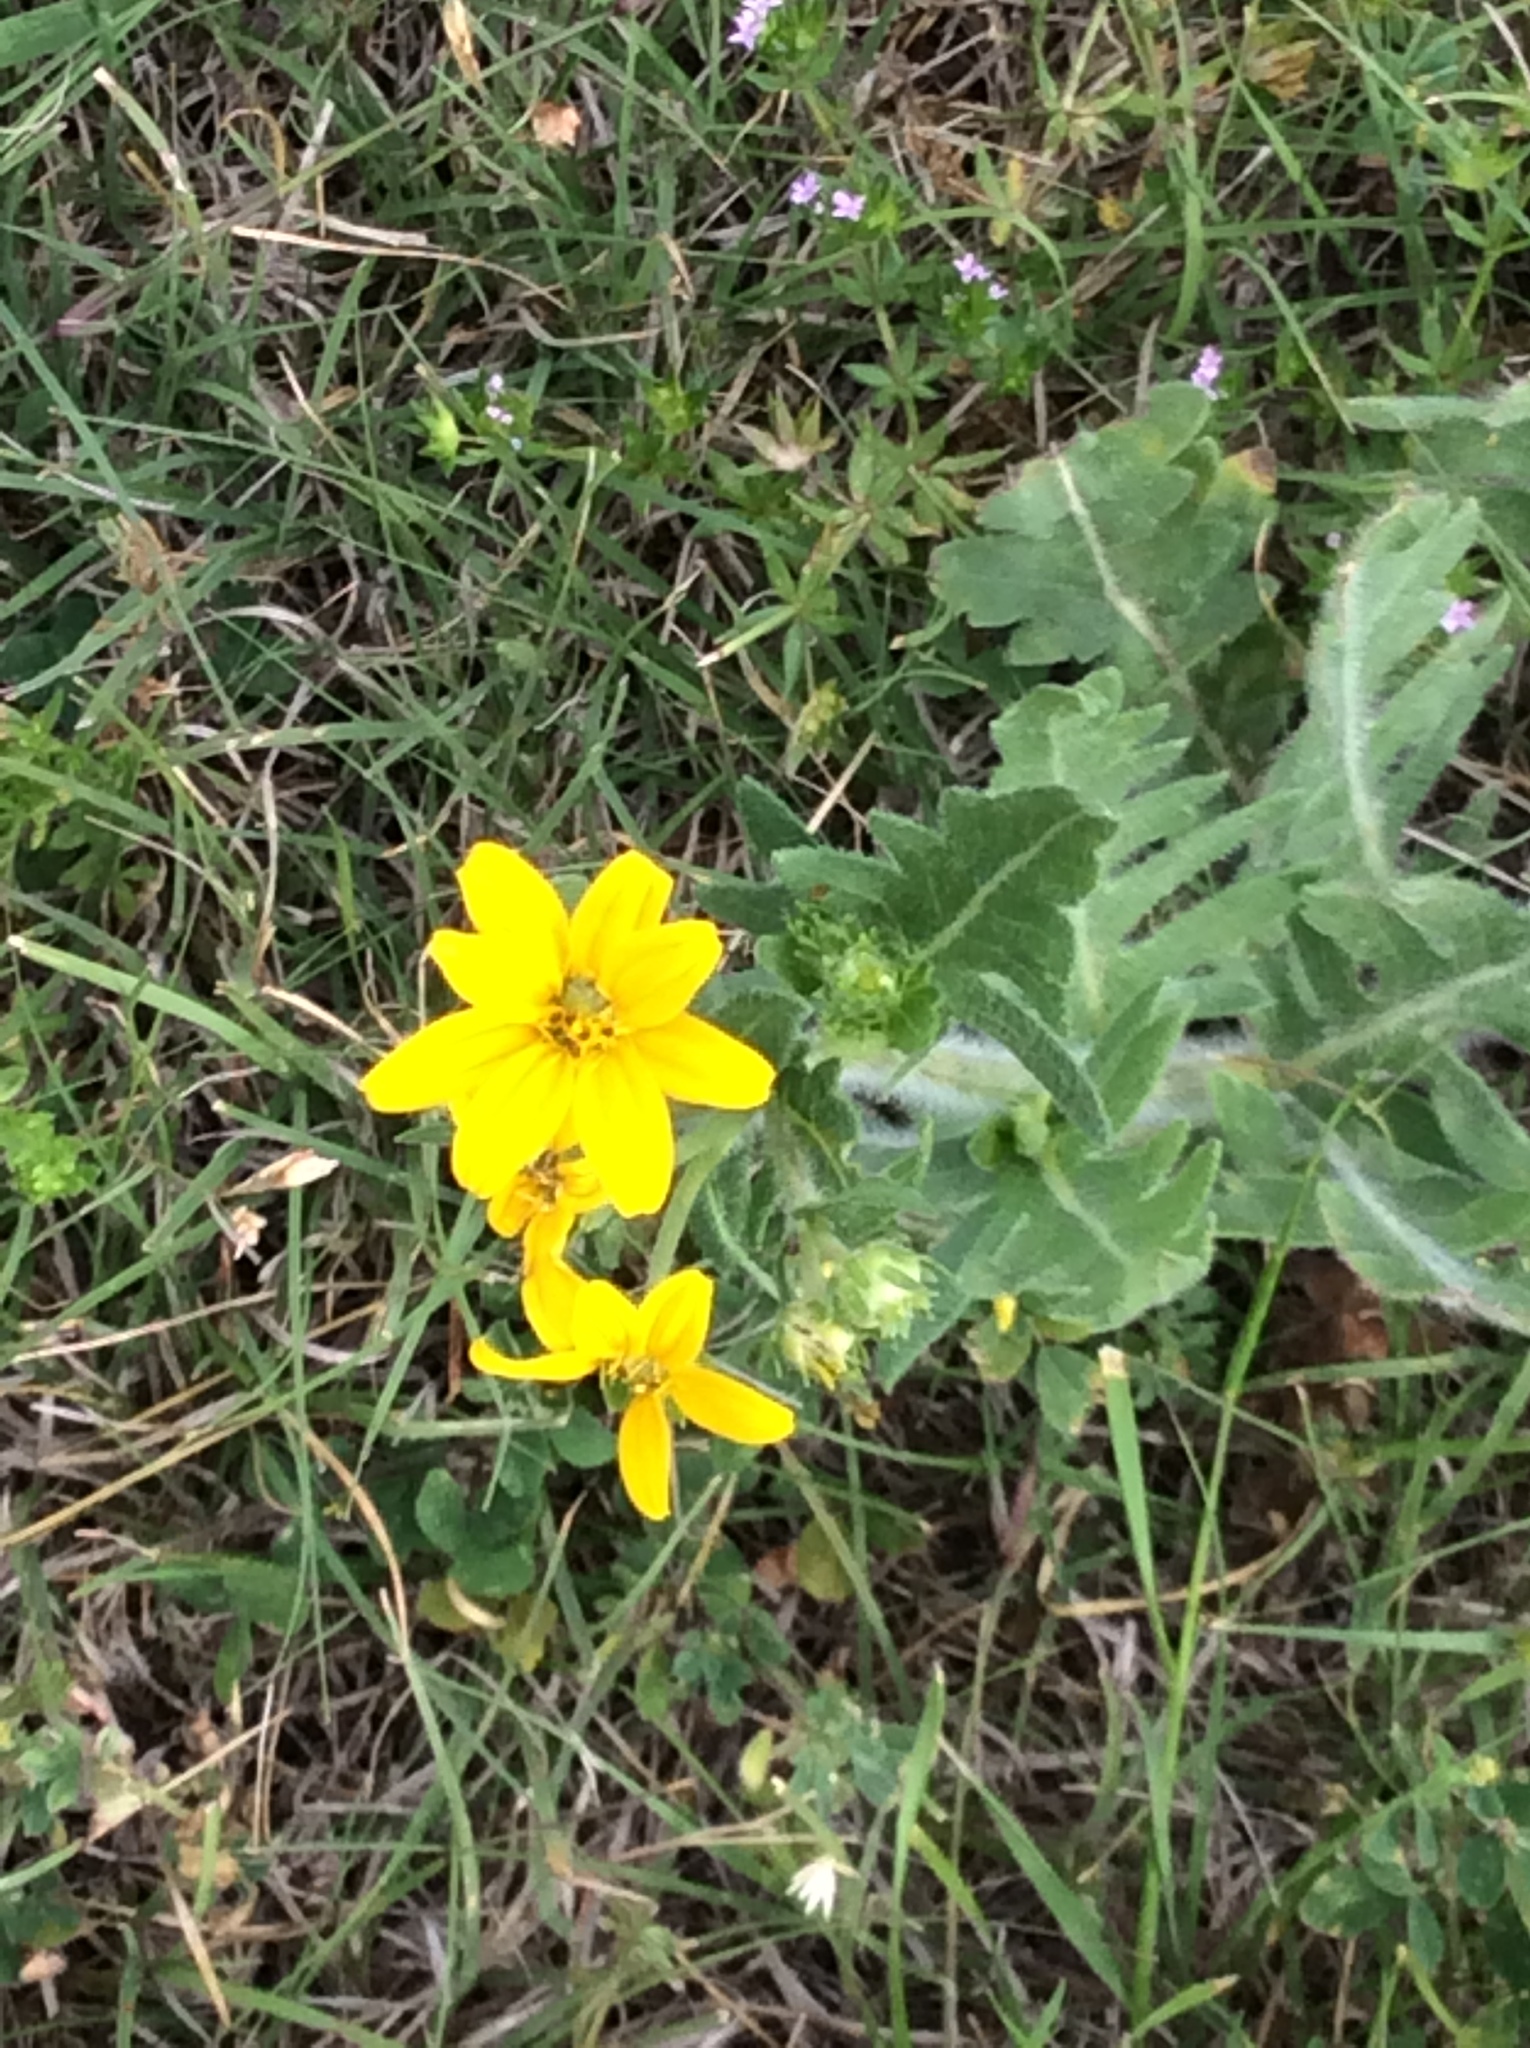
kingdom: Plantae
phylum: Tracheophyta
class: Magnoliopsida
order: Asterales
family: Asteraceae
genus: Engelmannia
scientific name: Engelmannia peristenia
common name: Engelmann's daisy
